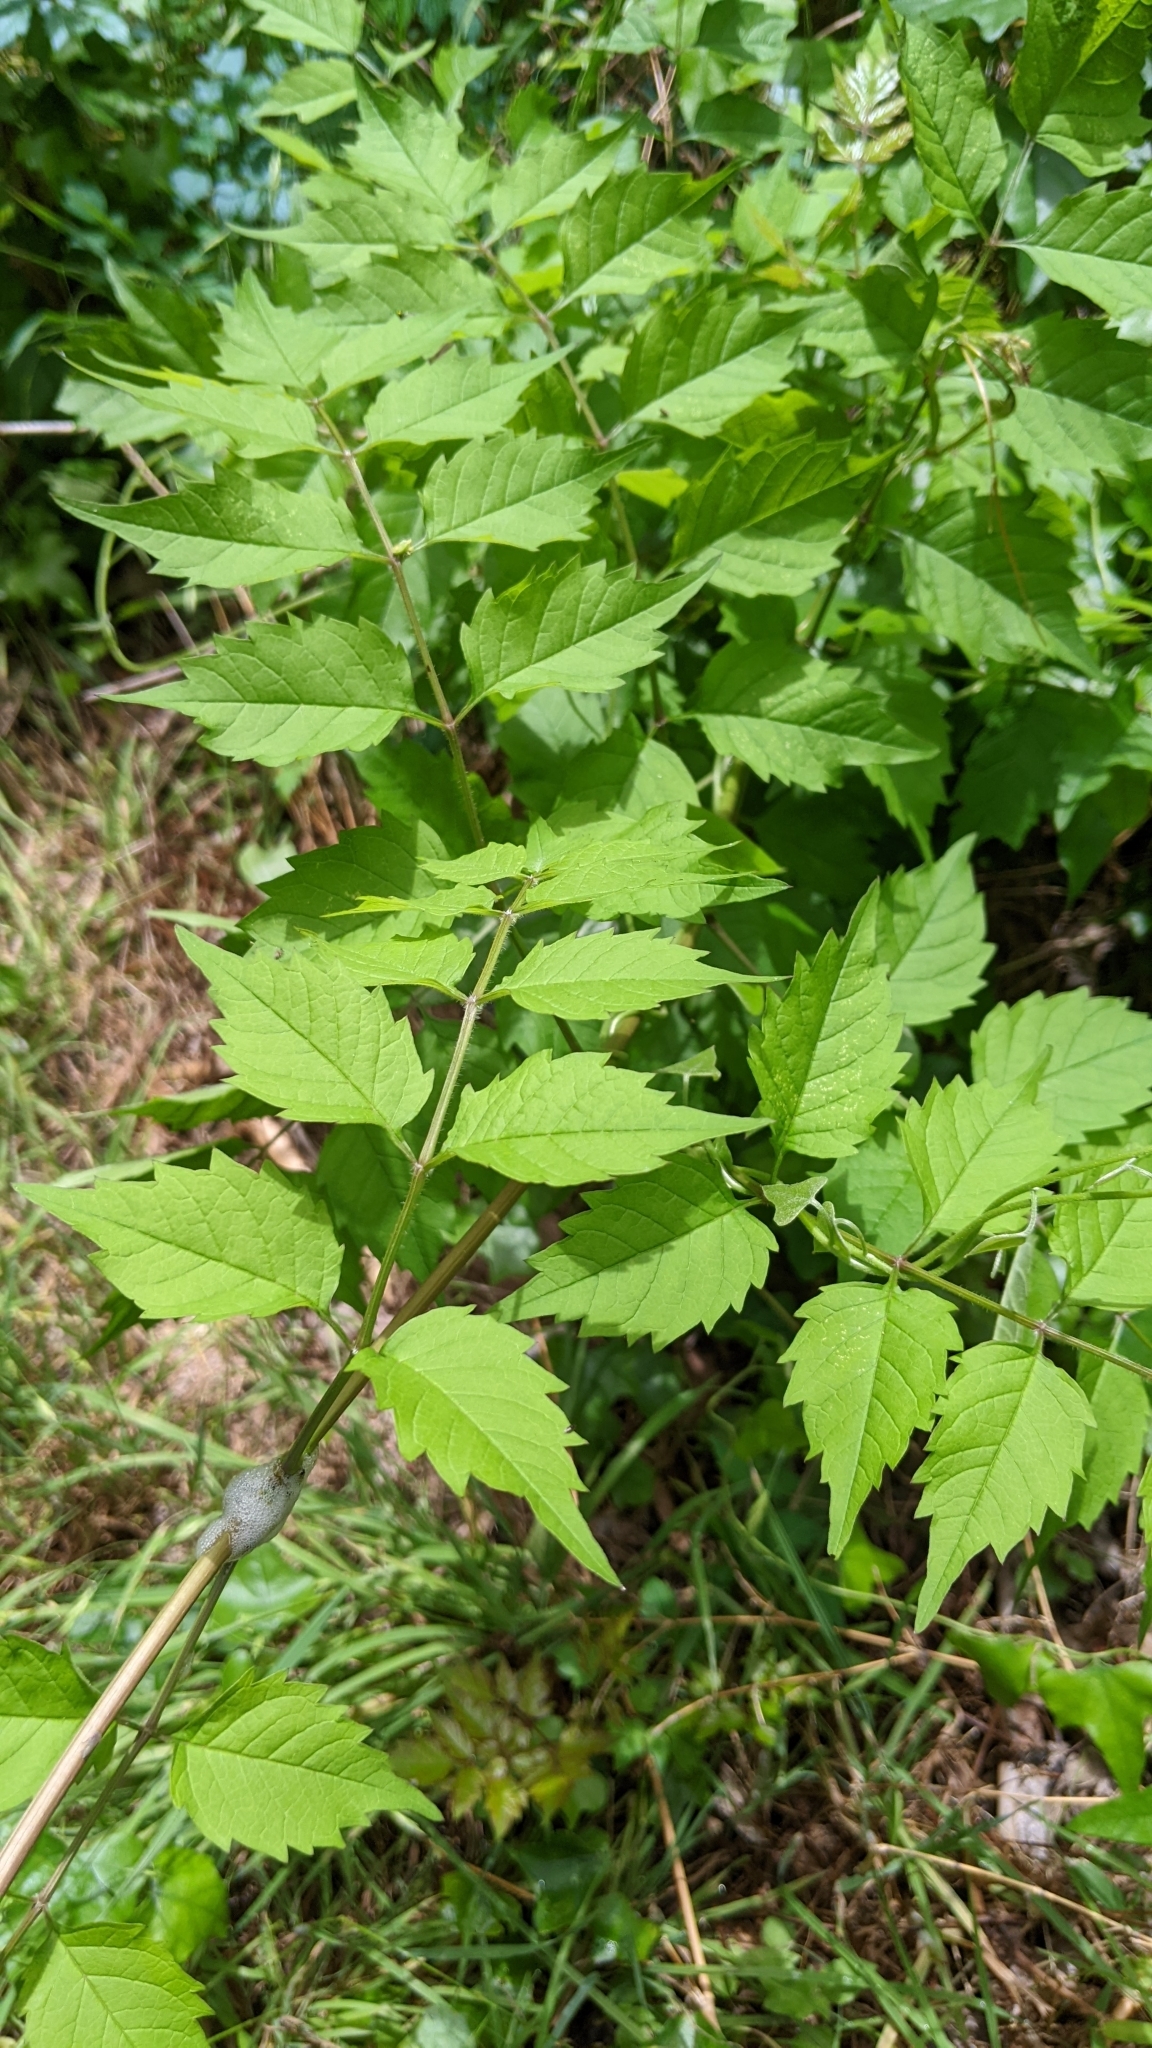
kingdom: Plantae
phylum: Tracheophyta
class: Magnoliopsida
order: Lamiales
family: Bignoniaceae
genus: Campsis
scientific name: Campsis radicans
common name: Trumpet-creeper
